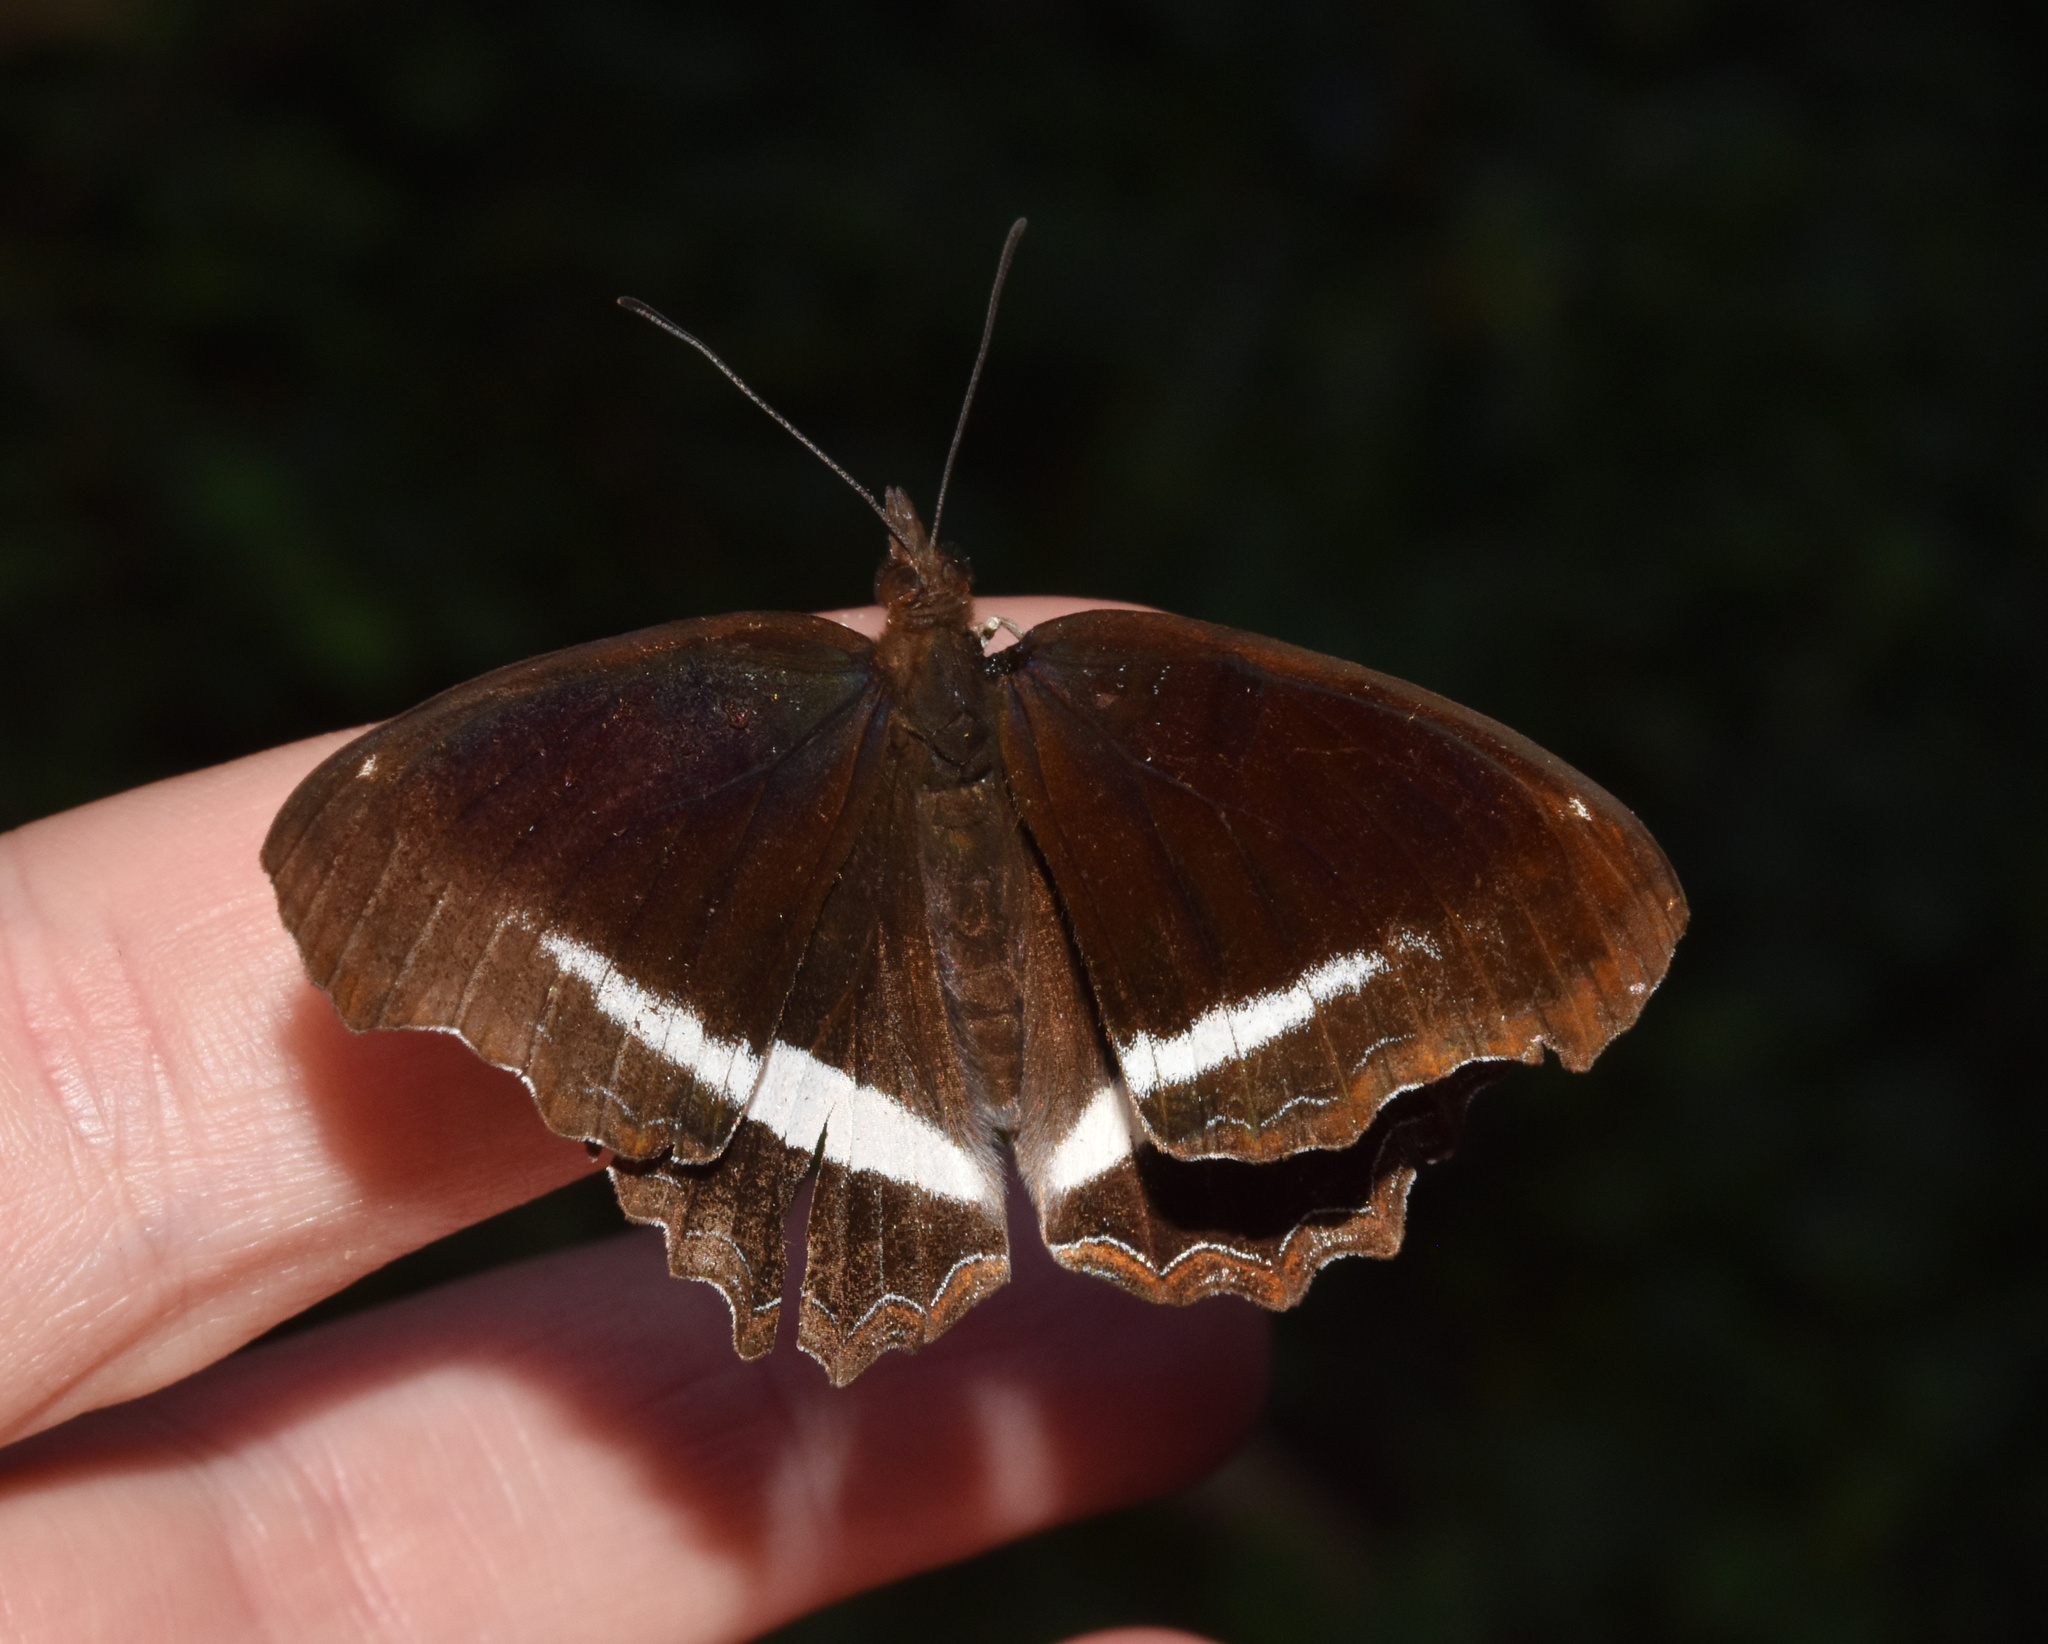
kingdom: Animalia
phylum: Arthropoda
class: Insecta
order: Lepidoptera
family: Nymphalidae
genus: Eurytela
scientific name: Eurytela hiarbas
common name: Pied piper
